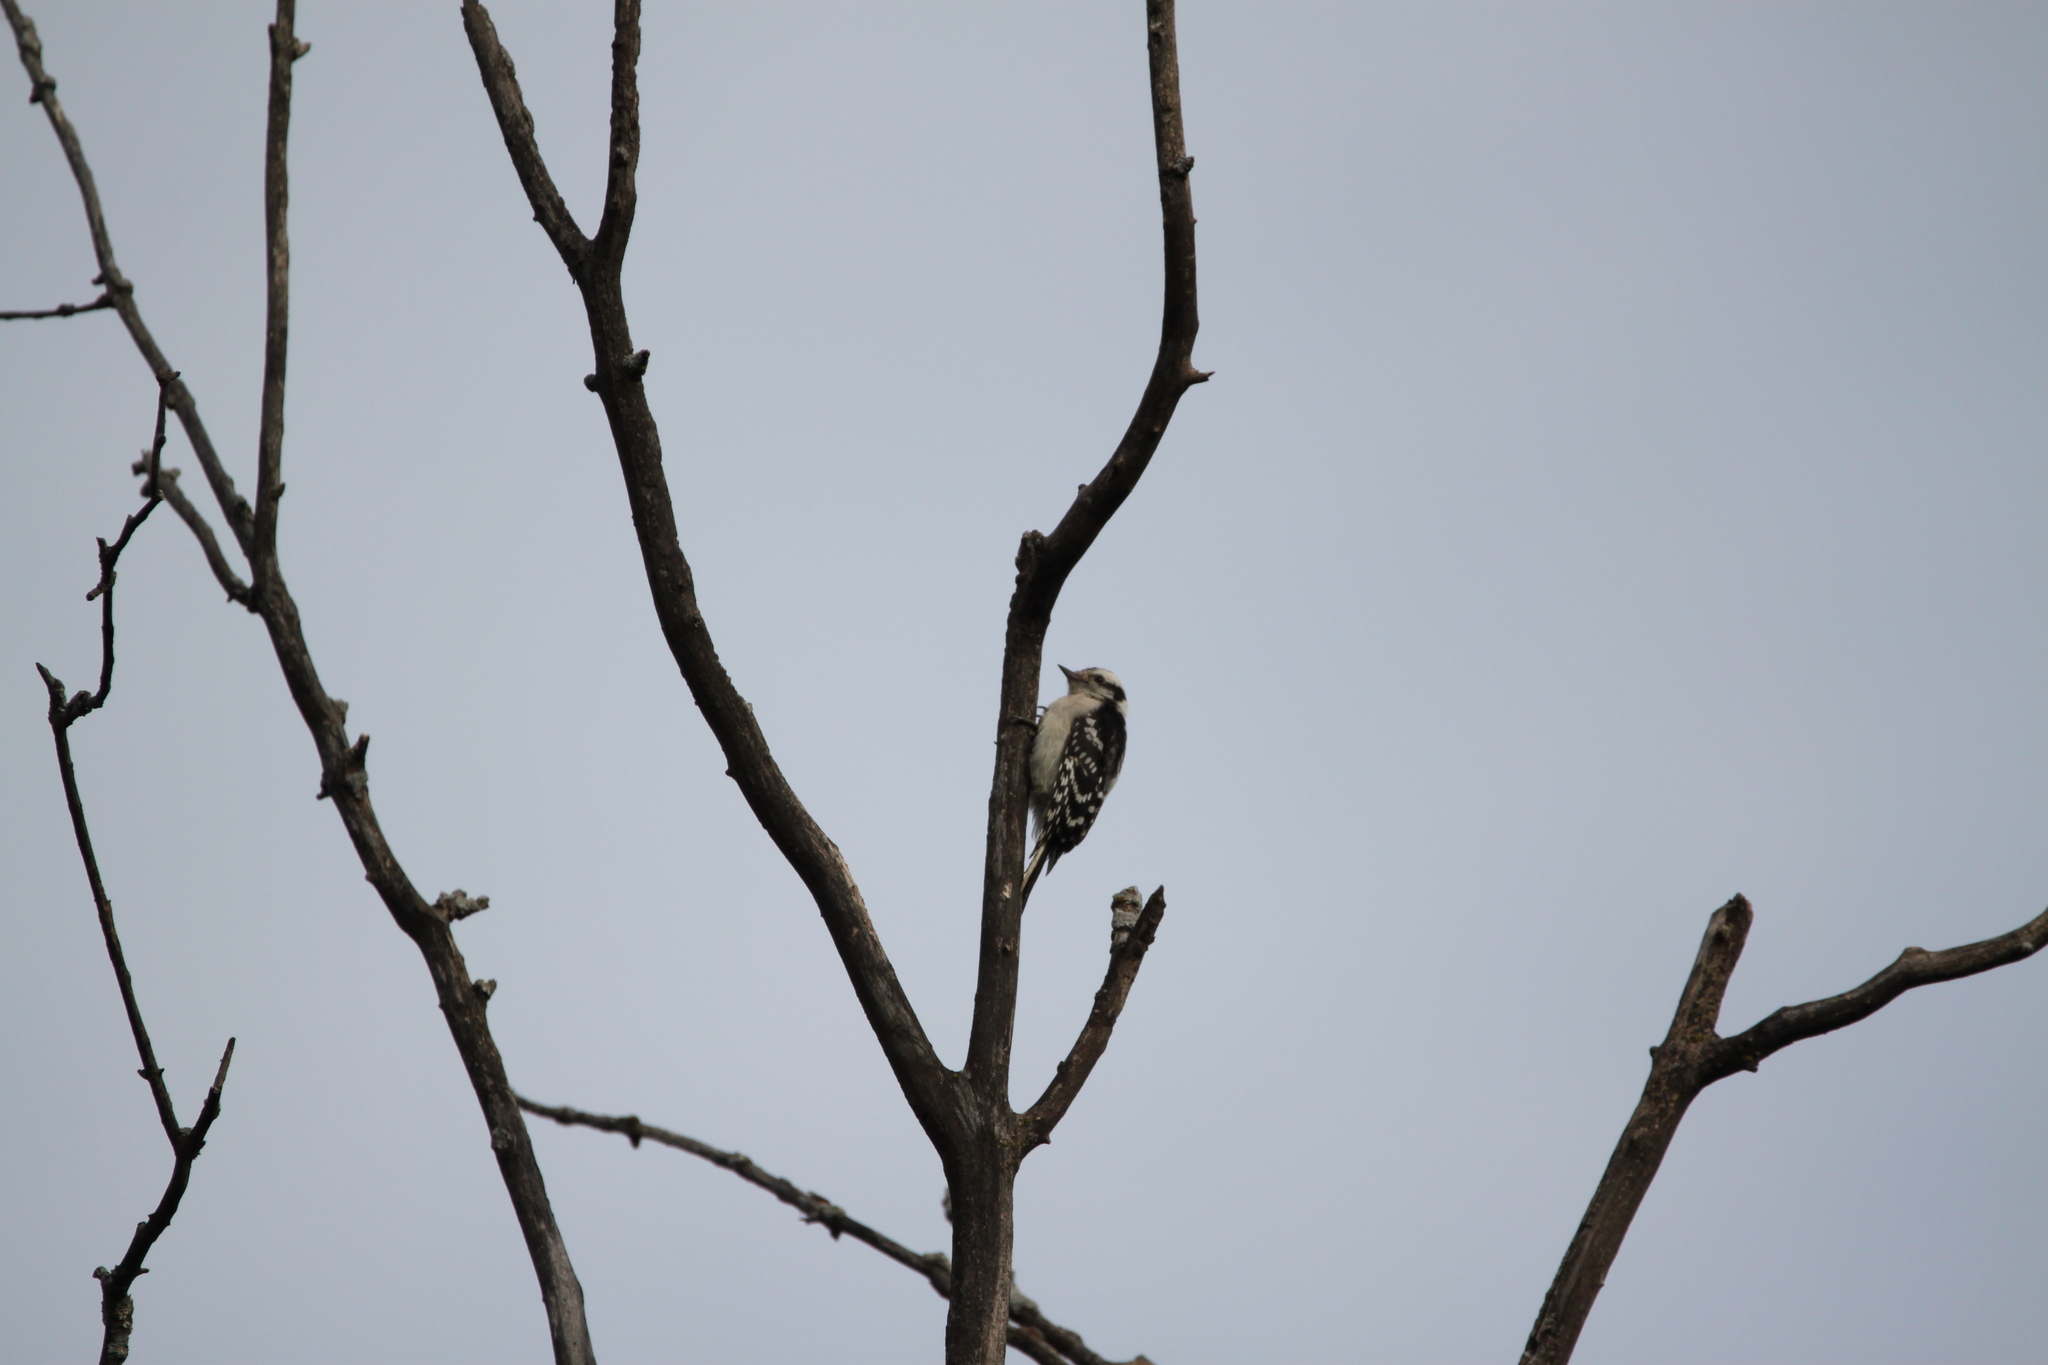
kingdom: Animalia
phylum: Chordata
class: Aves
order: Piciformes
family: Picidae
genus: Dryobates
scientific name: Dryobates pubescens
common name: Downy woodpecker
